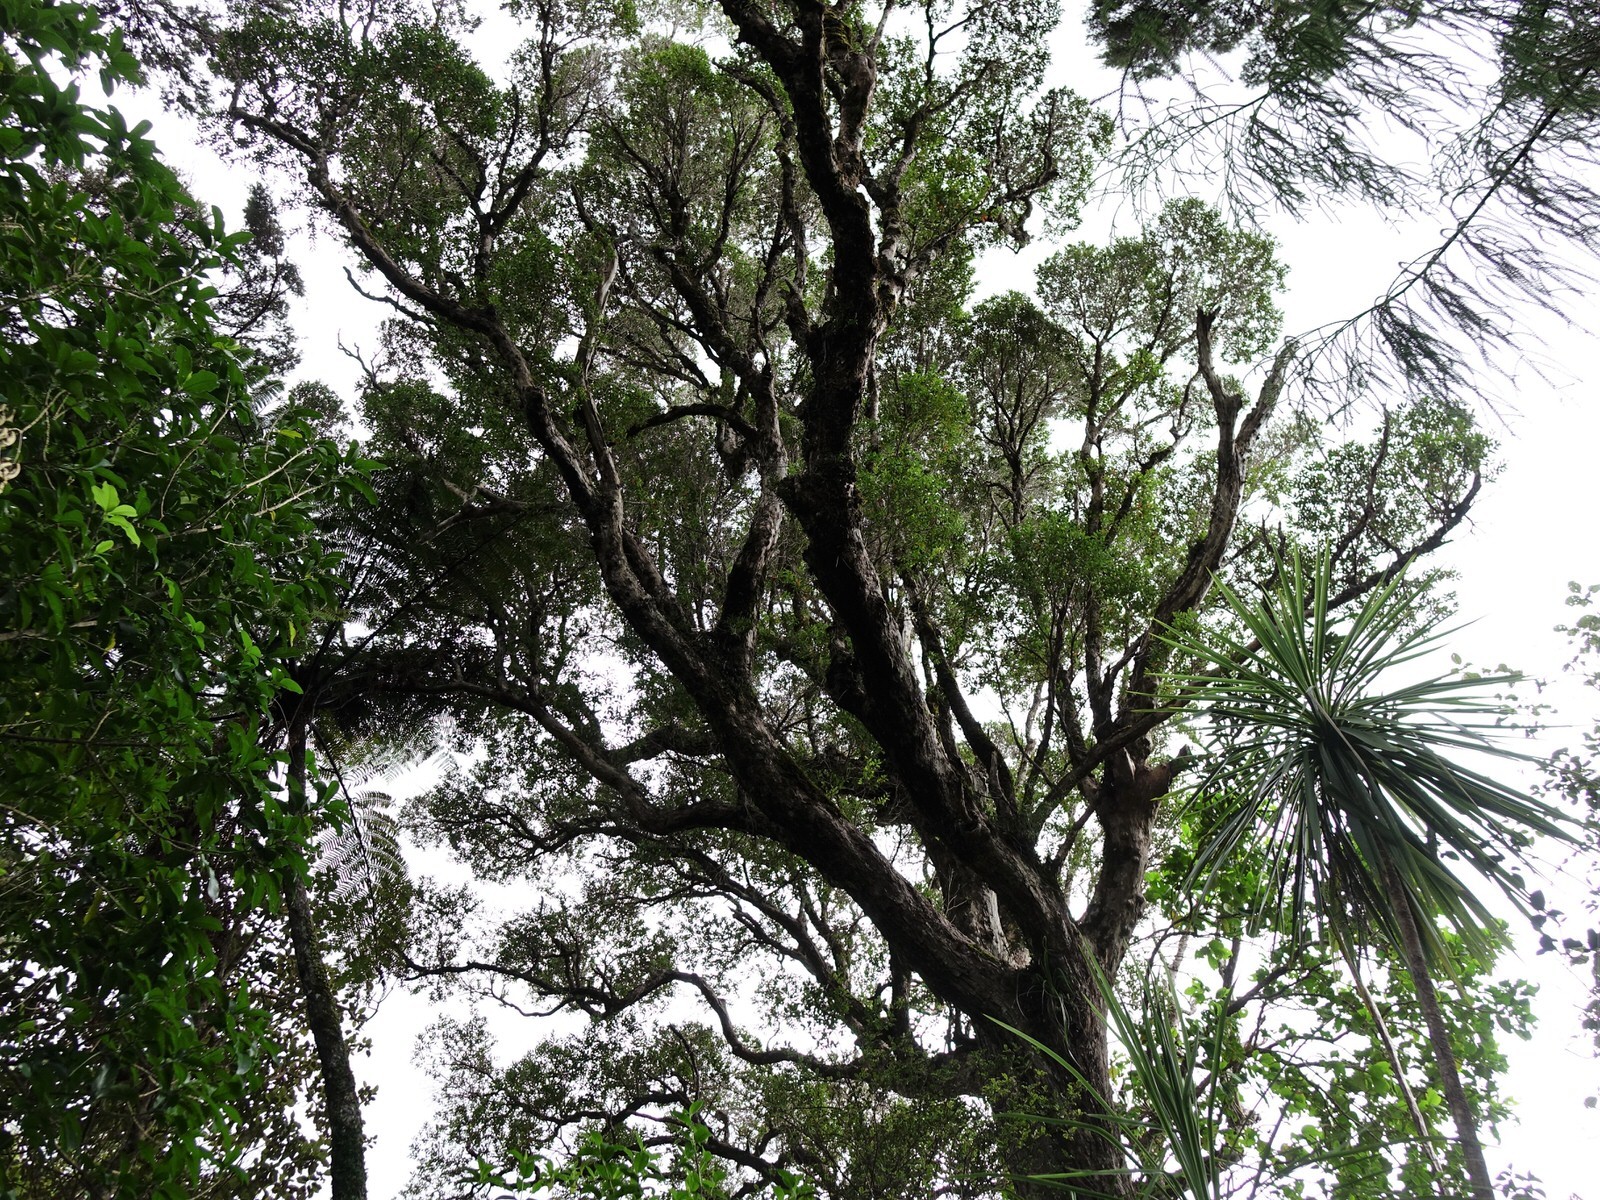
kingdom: Plantae
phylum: Tracheophyta
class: Magnoliopsida
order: Myrtales
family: Myrtaceae
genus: Metrosideros
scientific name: Metrosideros robusta
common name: Northern rata
